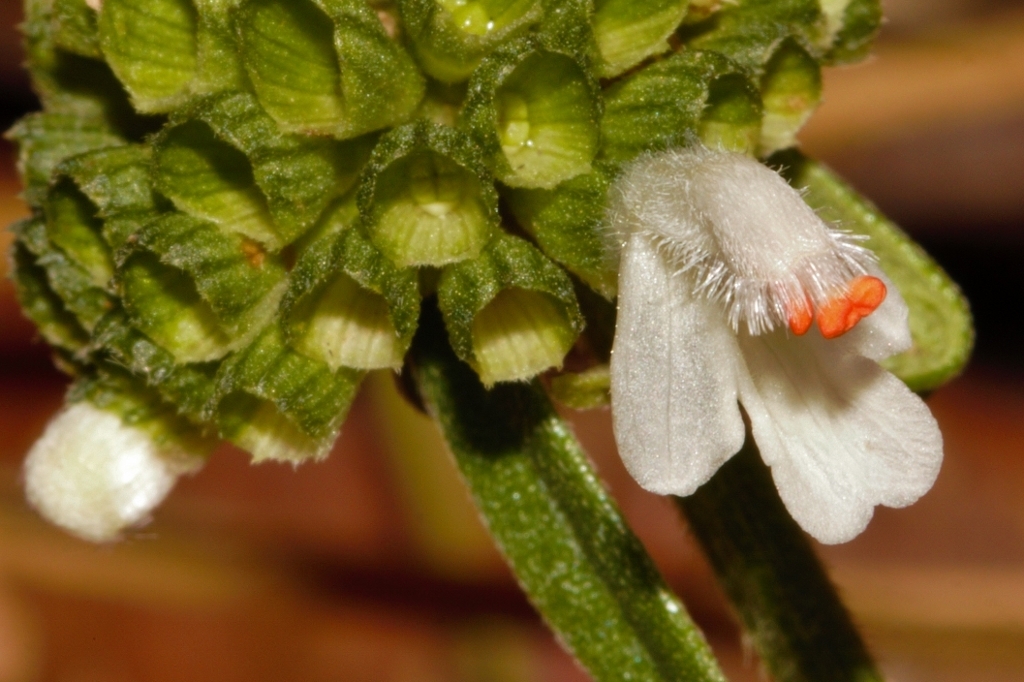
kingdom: Plantae
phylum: Tracheophyta
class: Magnoliopsida
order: Lamiales
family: Lamiaceae
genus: Leucas
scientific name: Leucas milanjiana
